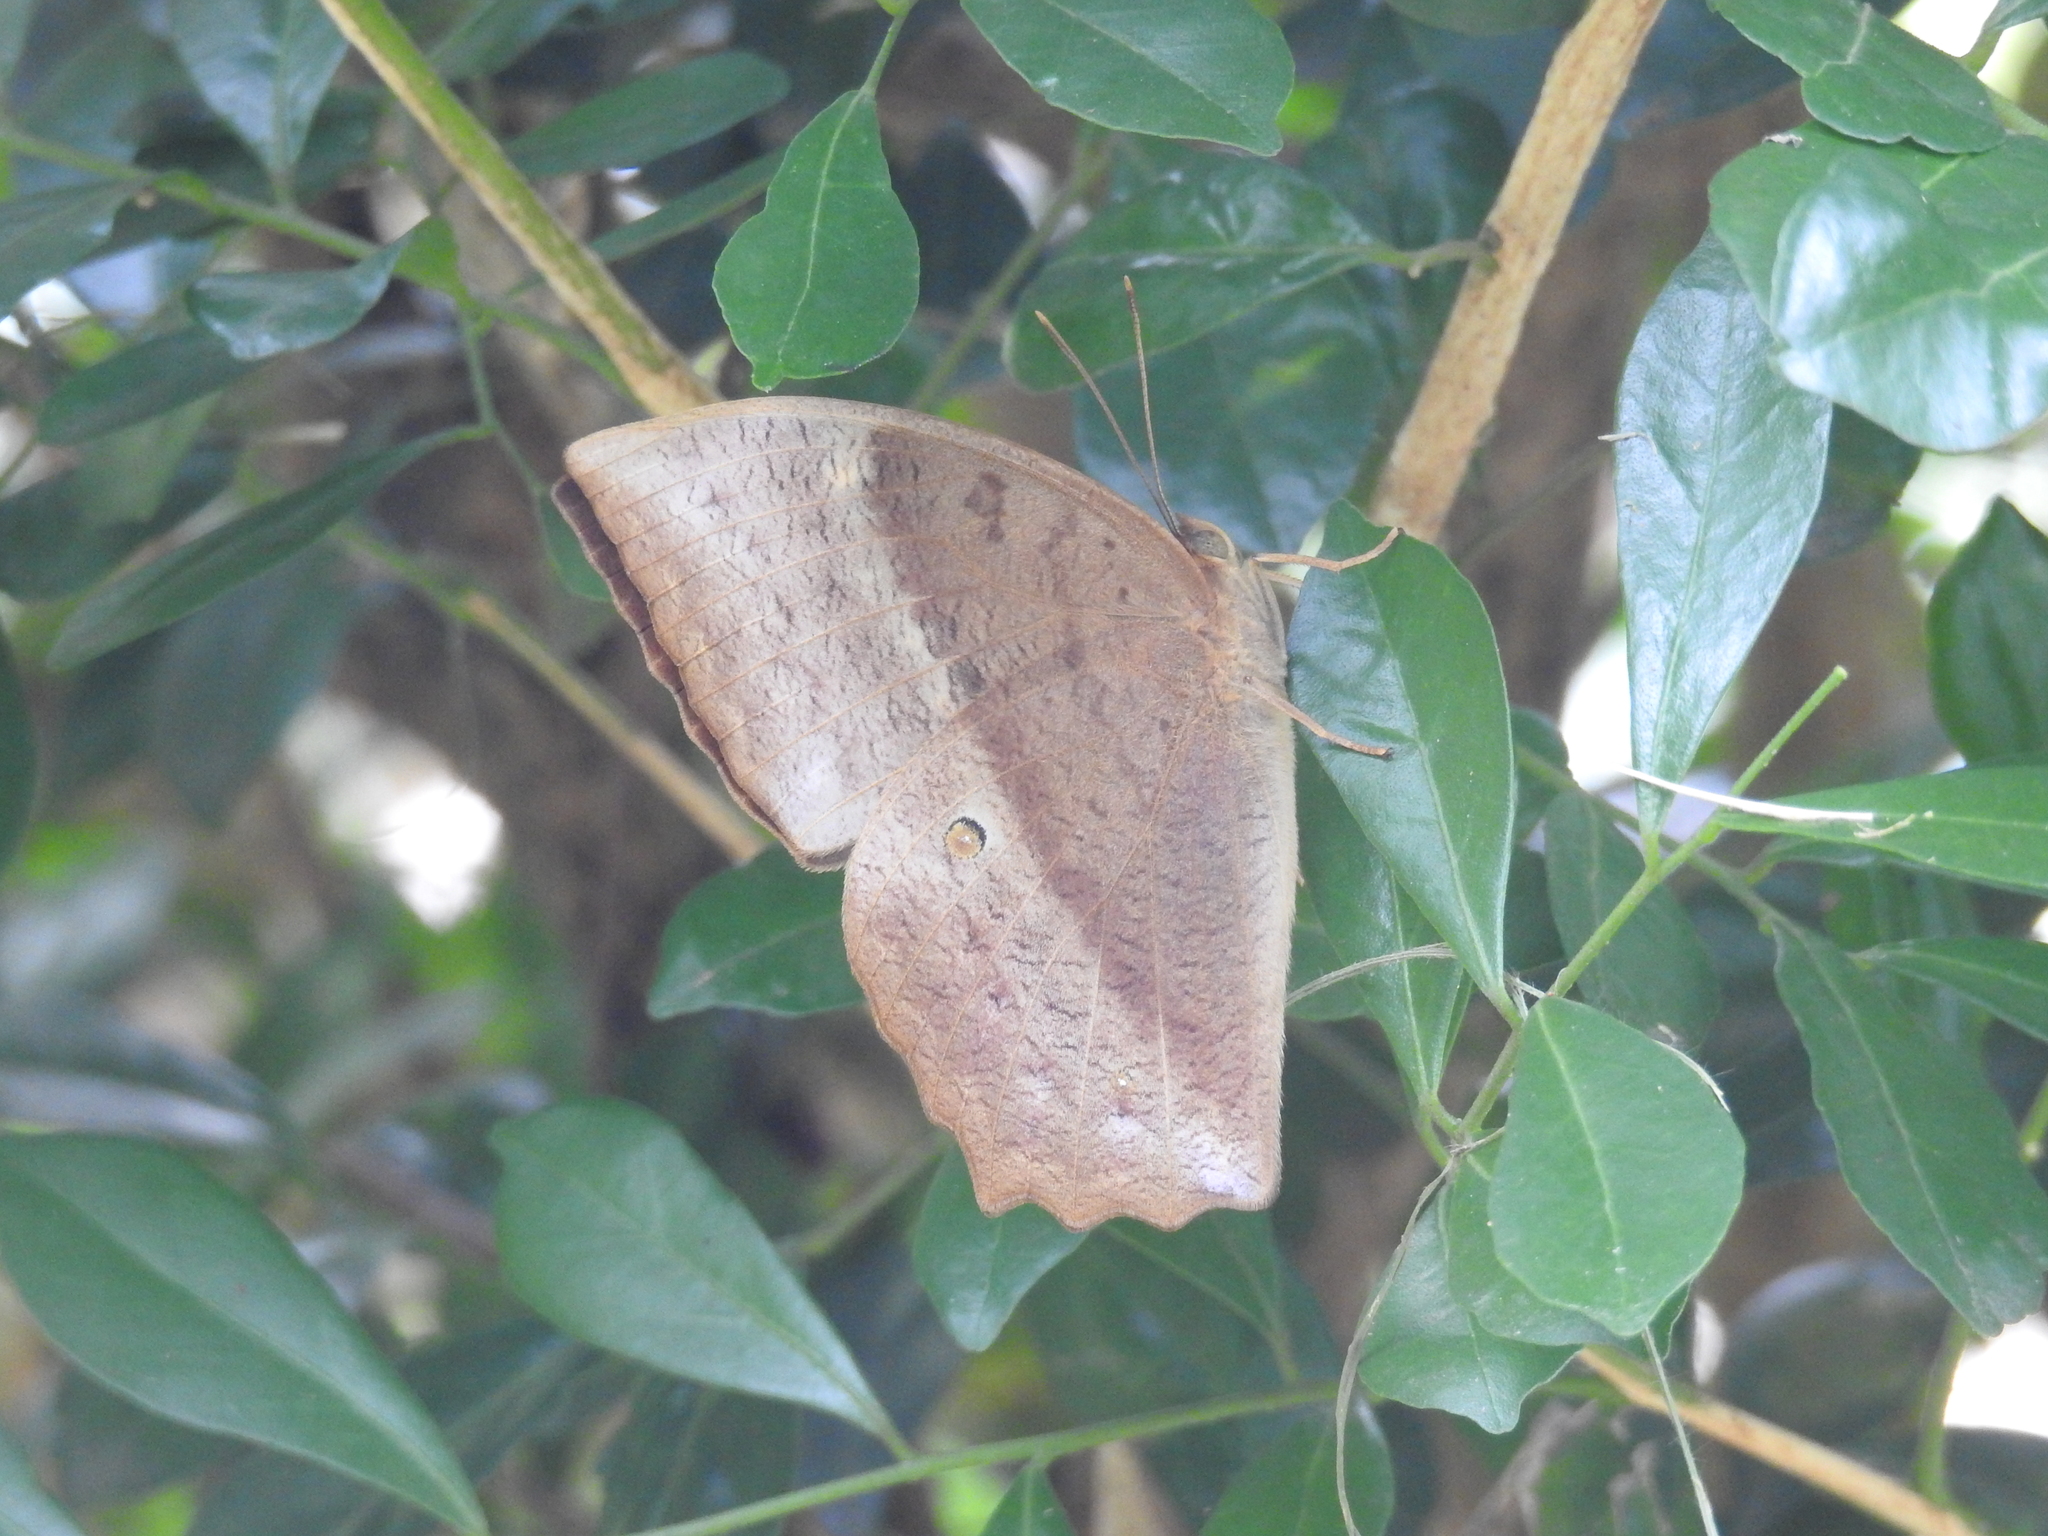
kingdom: Animalia
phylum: Arthropoda
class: Insecta
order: Lepidoptera
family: Nymphalidae
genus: Discophora
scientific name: Discophora sondaica
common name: Common duffer
